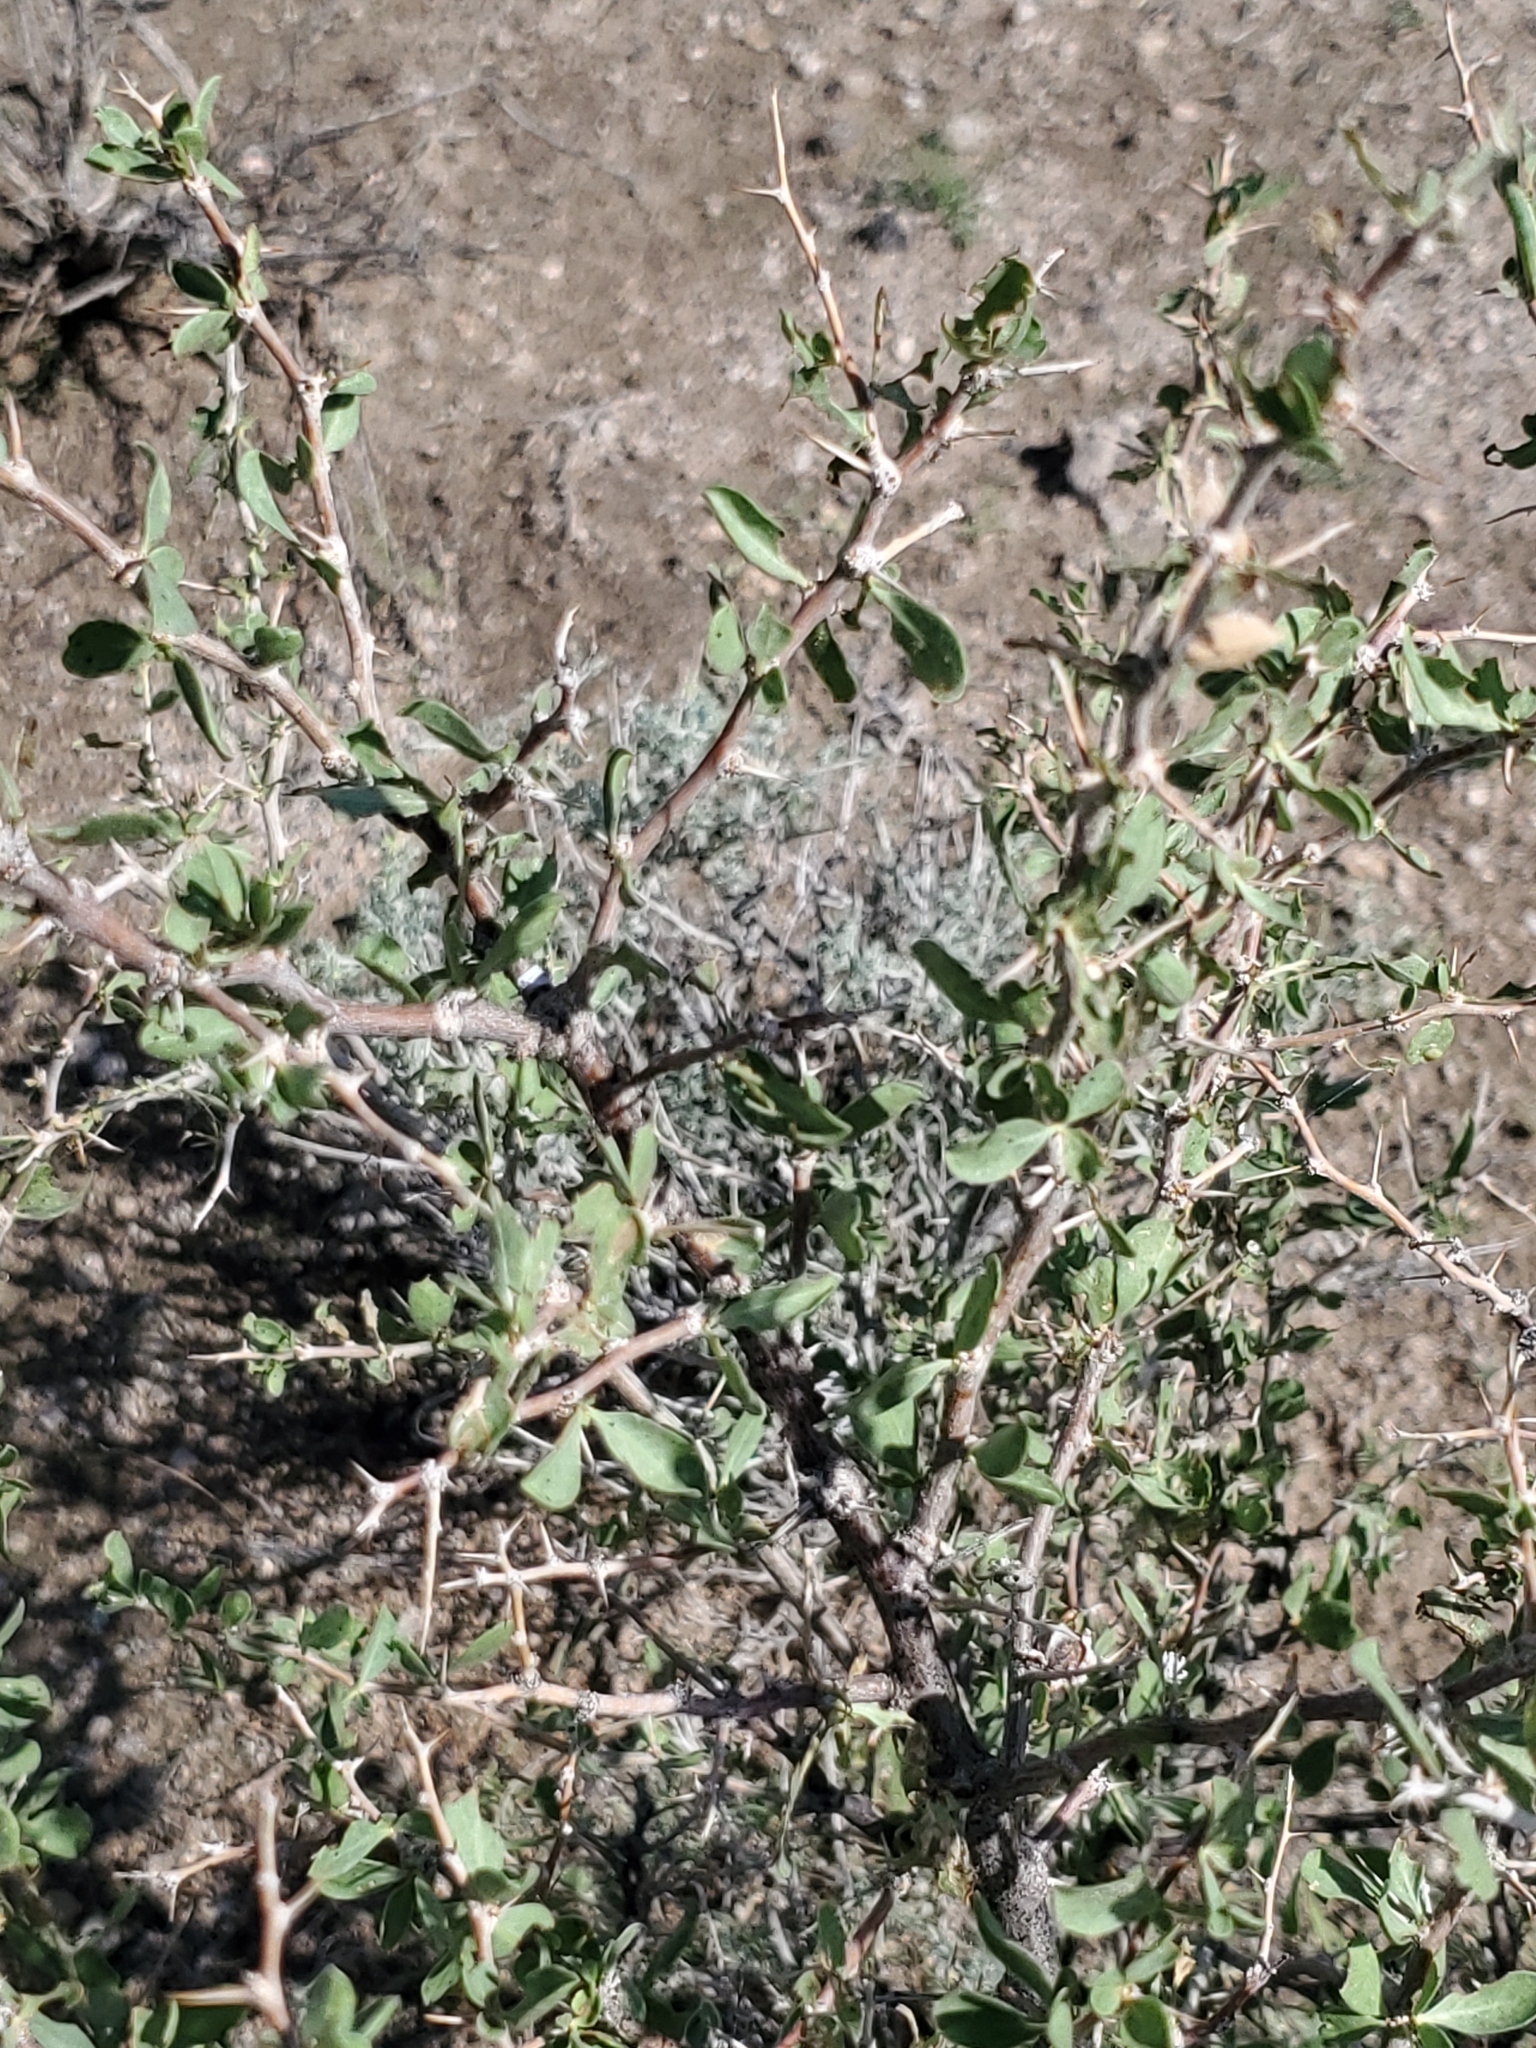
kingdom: Plantae
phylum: Tracheophyta
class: Magnoliopsida
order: Solanales
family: Solanaceae
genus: Lycium
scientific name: Lycium cooperi
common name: Peachthorn
